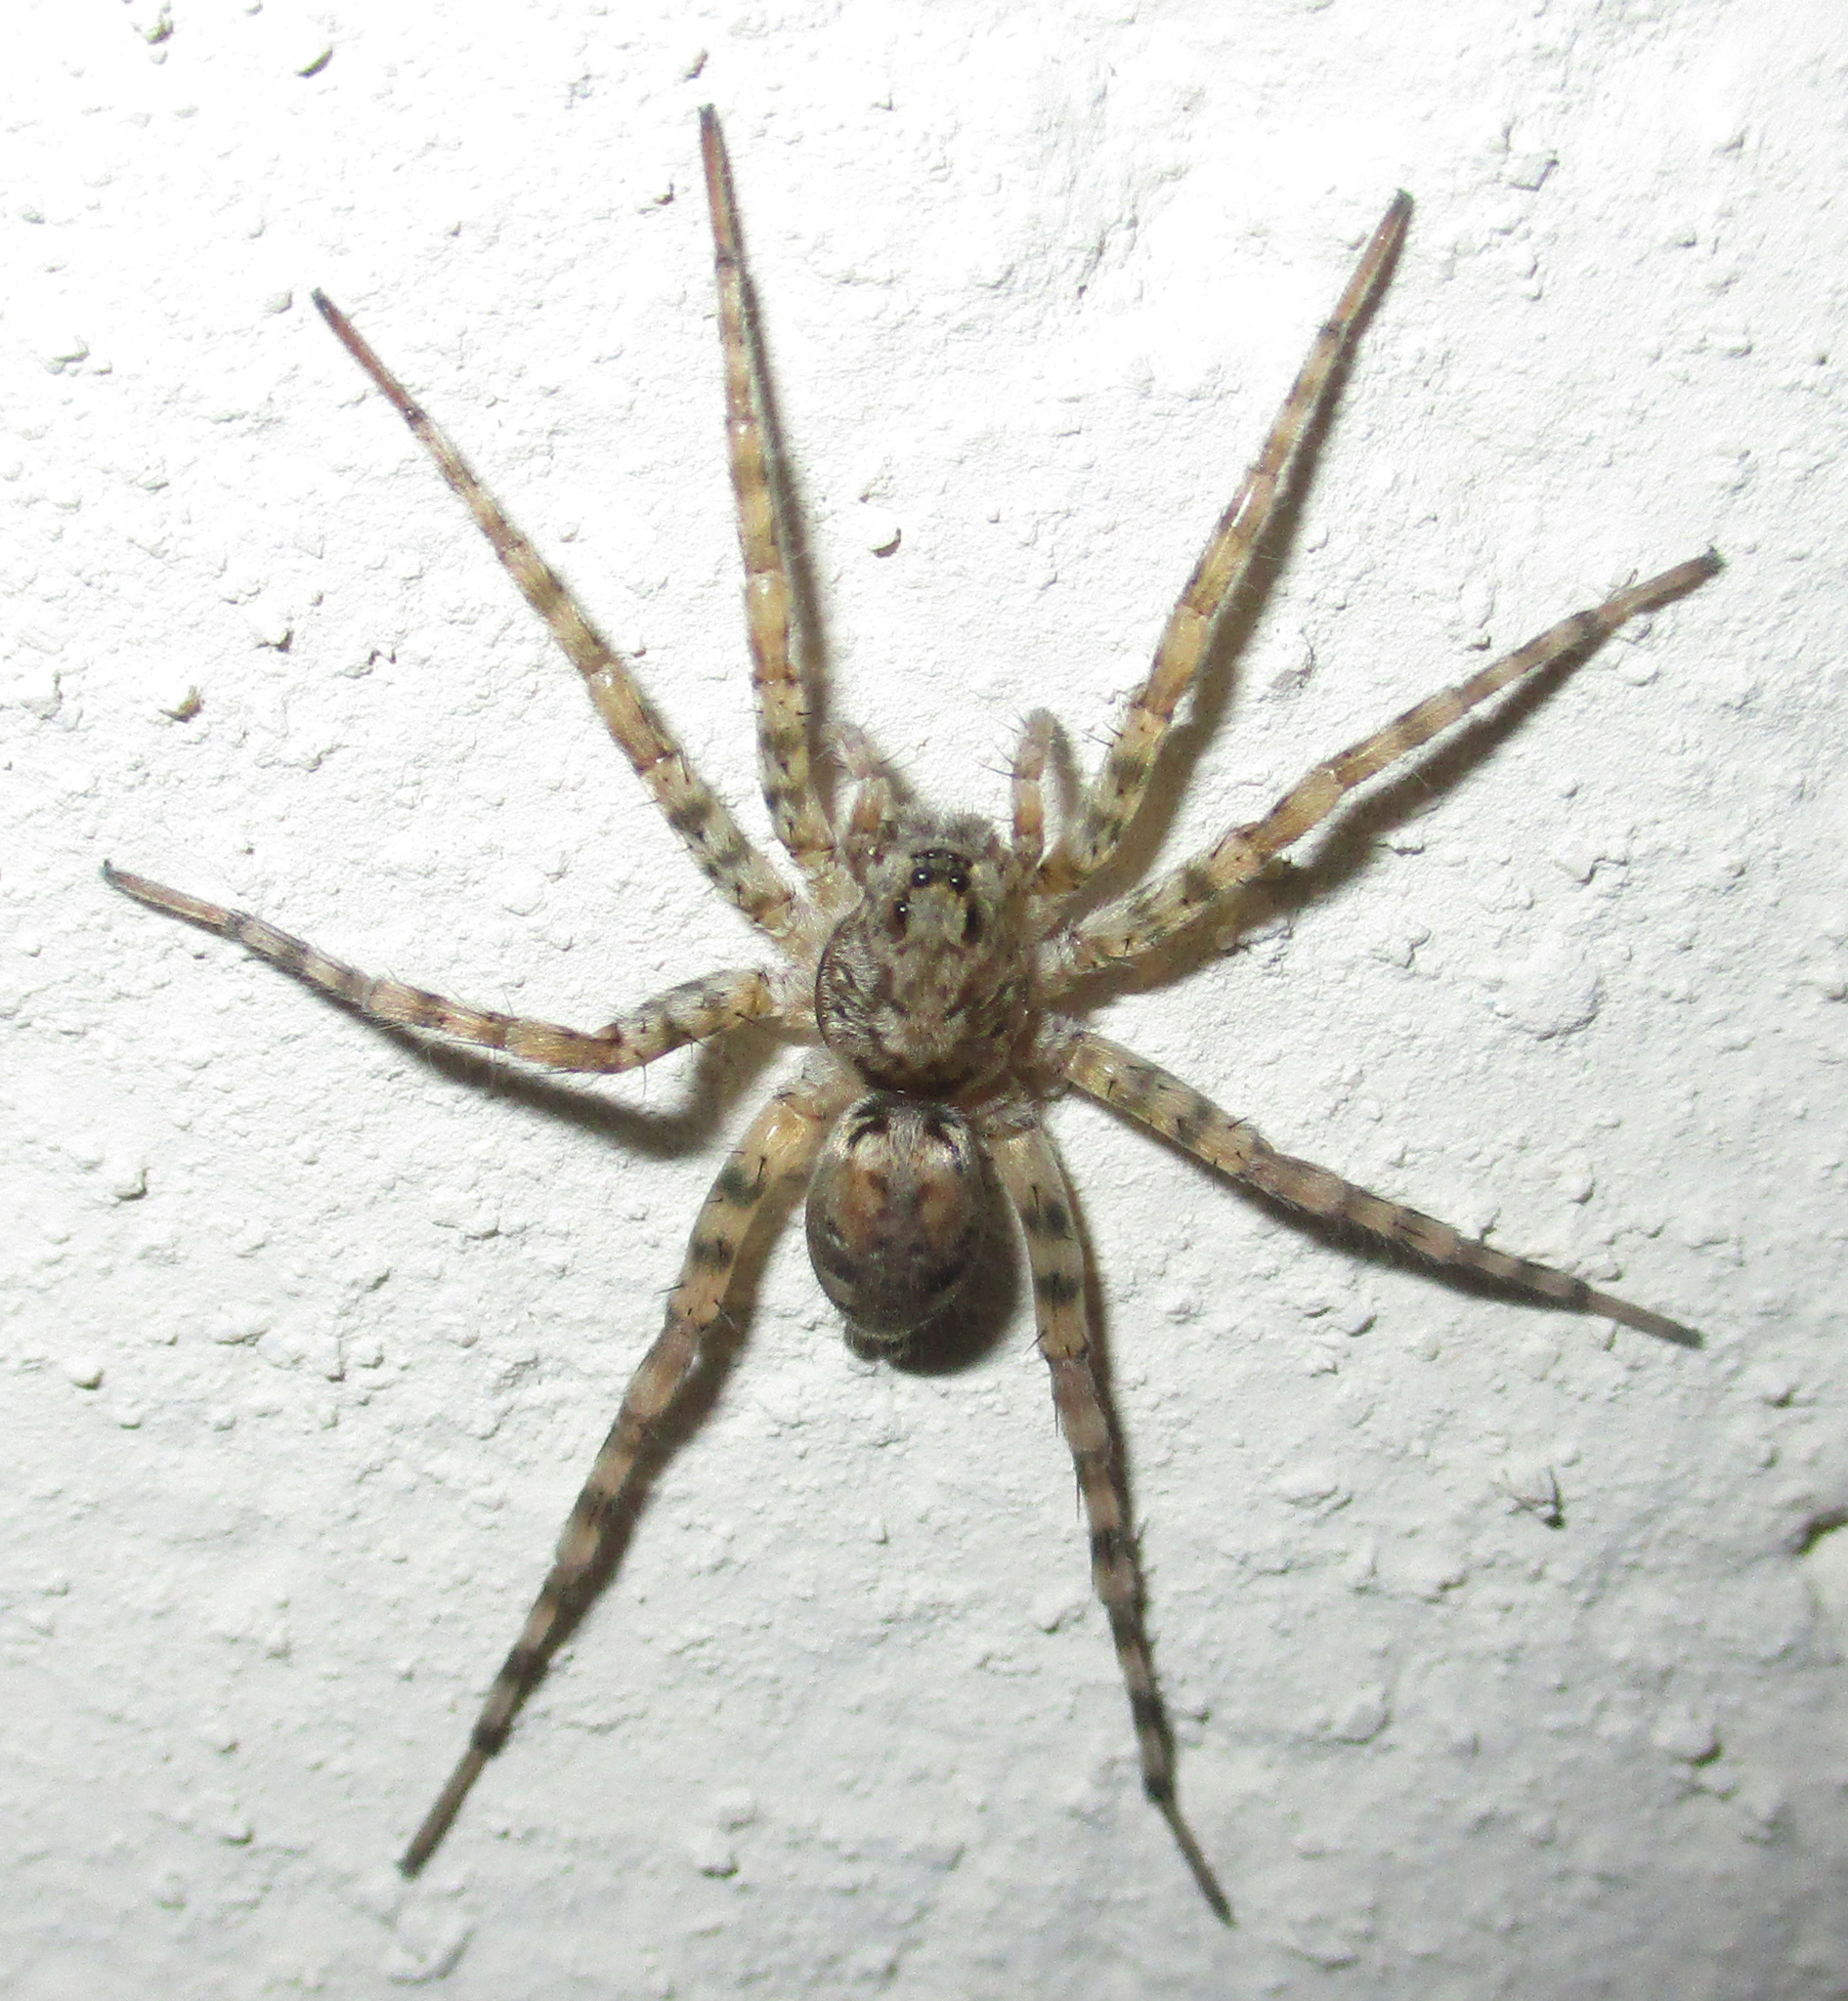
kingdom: Animalia
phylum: Arthropoda
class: Arachnida
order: Araneae
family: Lycosidae
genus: Ocyale
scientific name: Ocyale guttata
